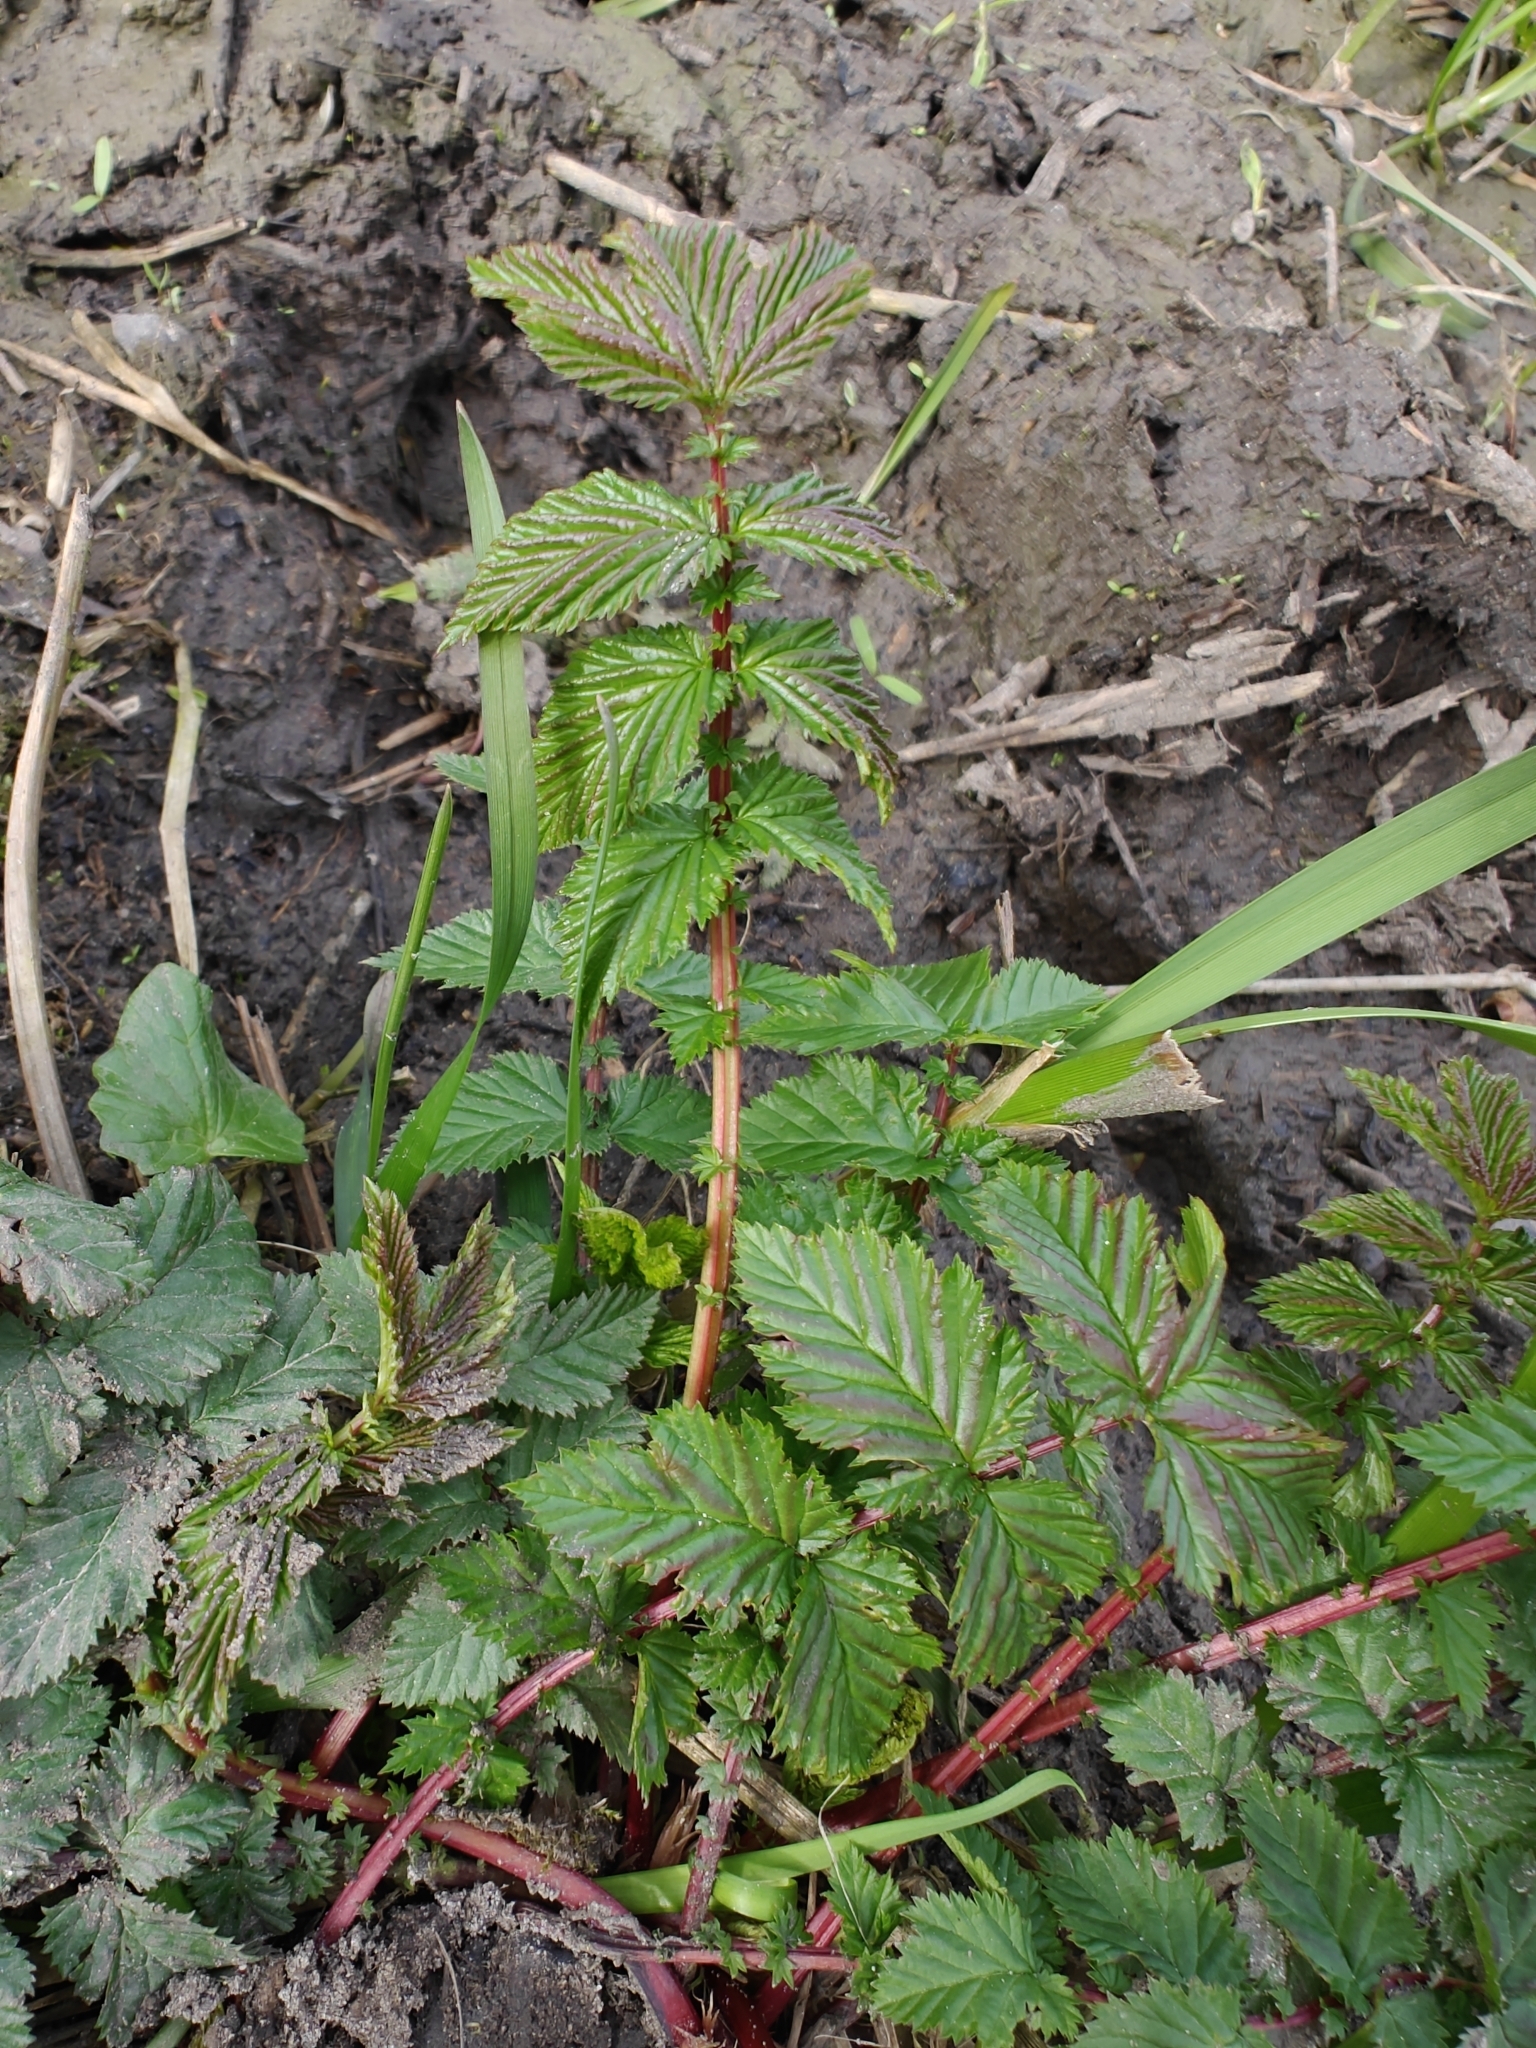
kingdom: Plantae
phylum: Tracheophyta
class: Magnoliopsida
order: Rosales
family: Rosaceae
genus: Filipendula
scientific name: Filipendula ulmaria
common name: Meadowsweet
